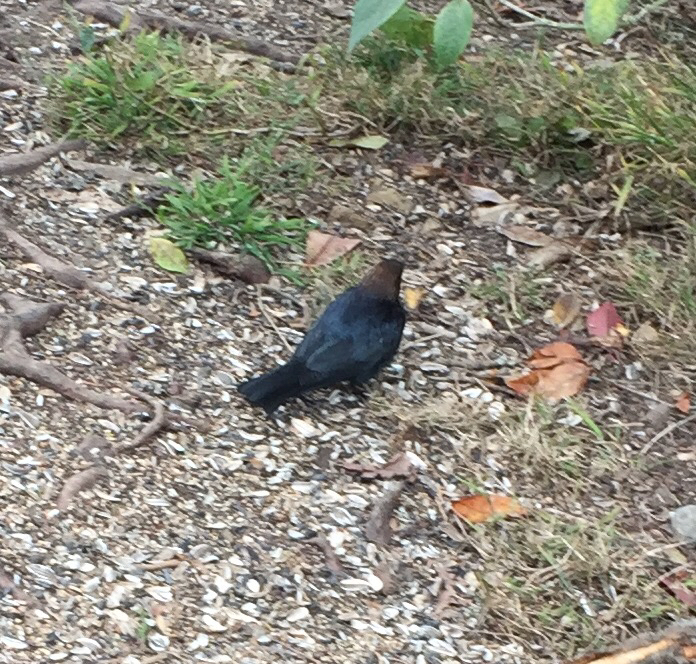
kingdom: Animalia
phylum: Chordata
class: Aves
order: Passeriformes
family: Icteridae
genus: Molothrus
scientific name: Molothrus ater
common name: Brown-headed cowbird
